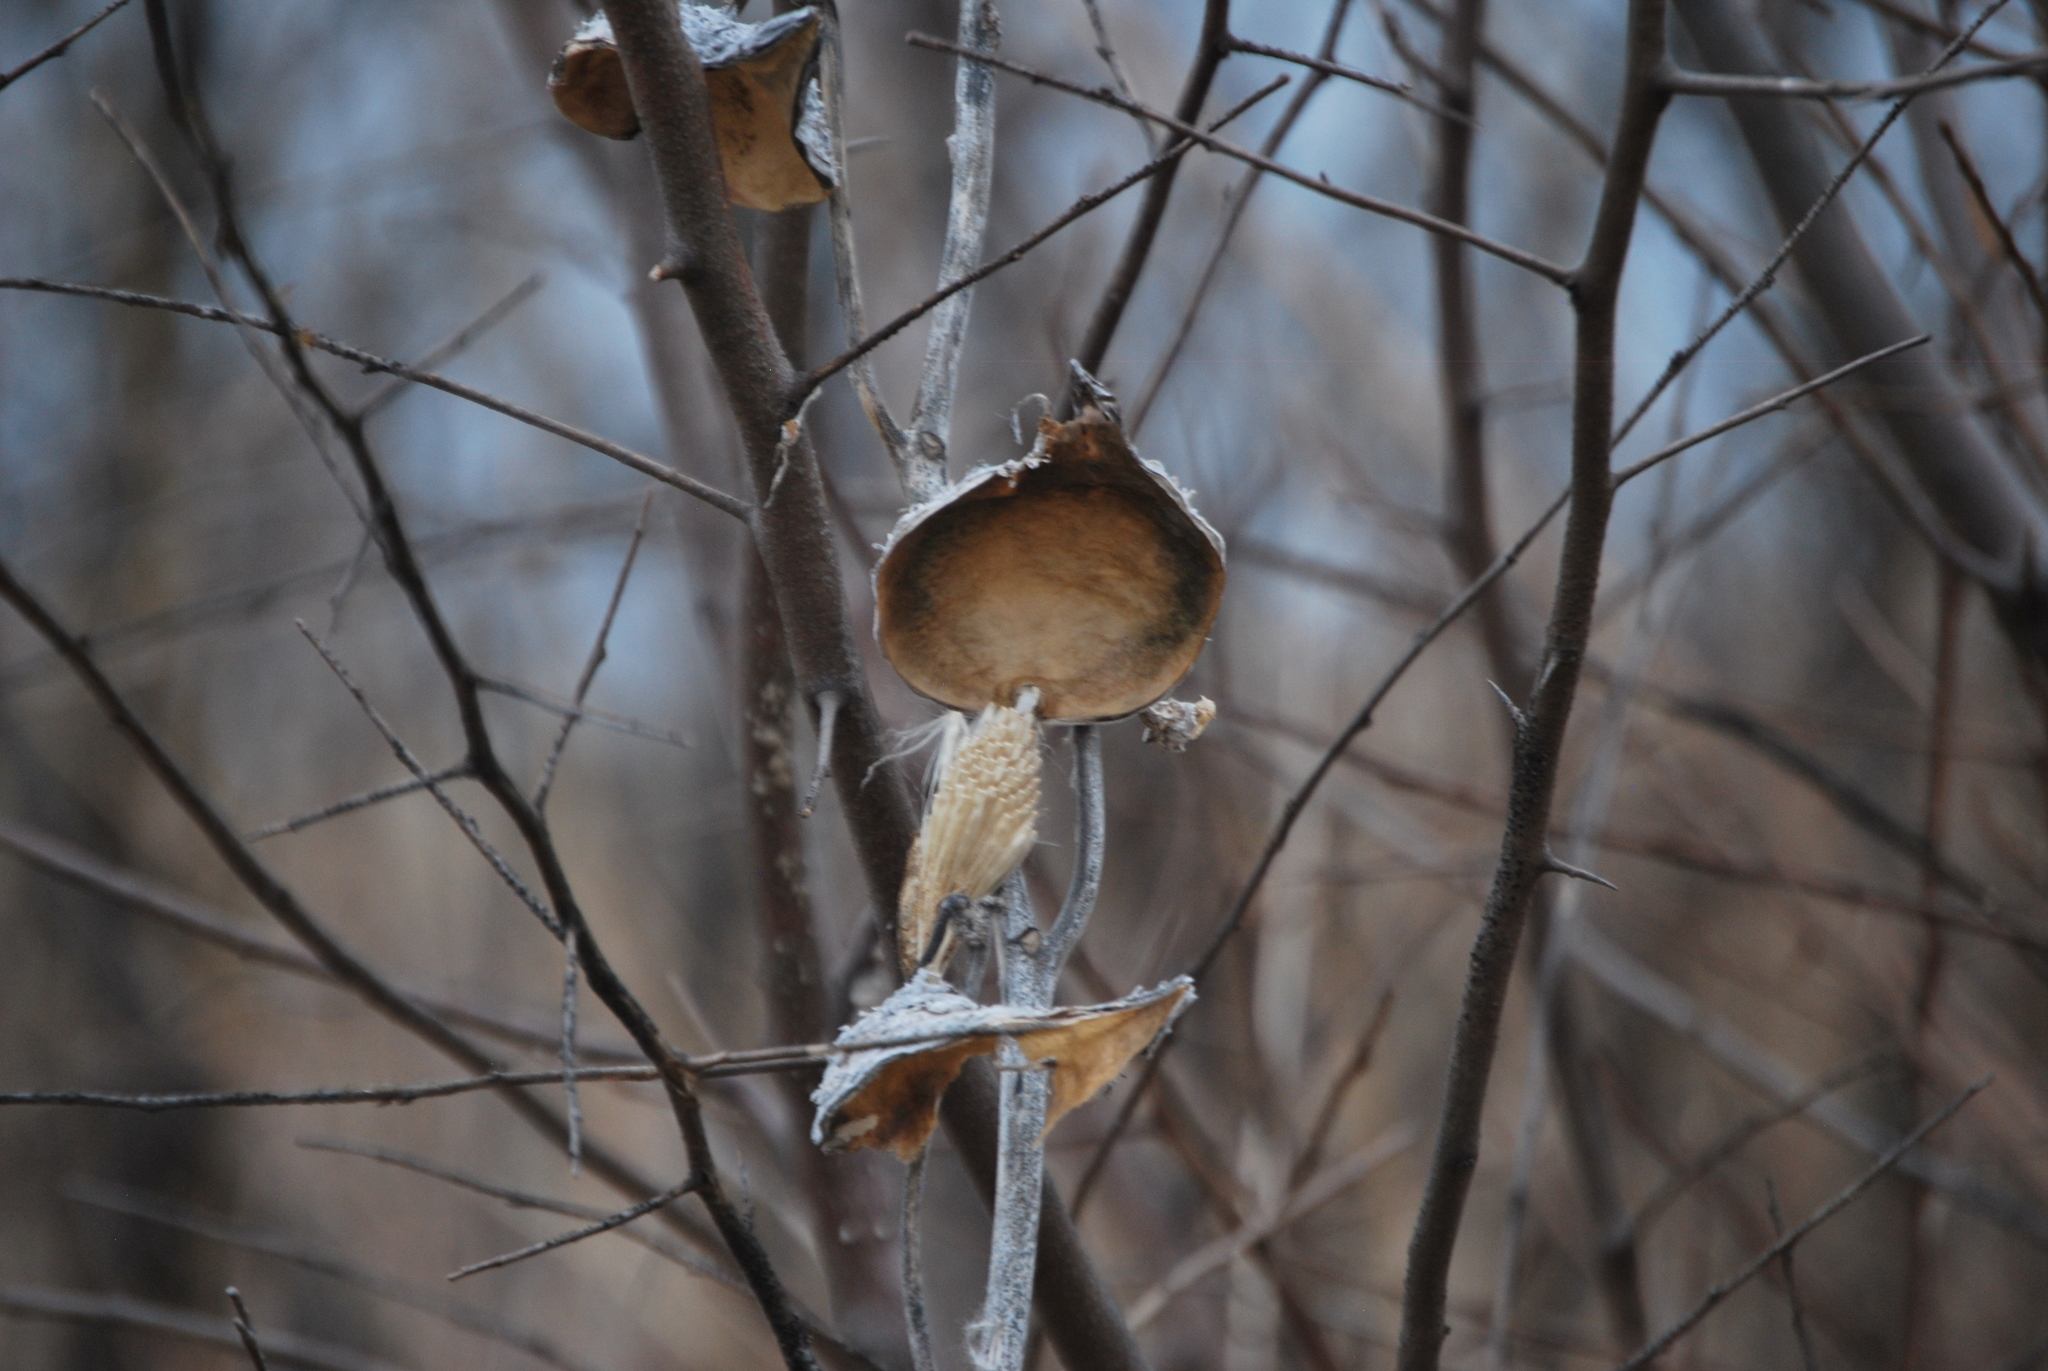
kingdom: Plantae
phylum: Tracheophyta
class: Magnoliopsida
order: Gentianales
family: Apocynaceae
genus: Asclepias
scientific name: Asclepias syriaca
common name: Common milkweed
